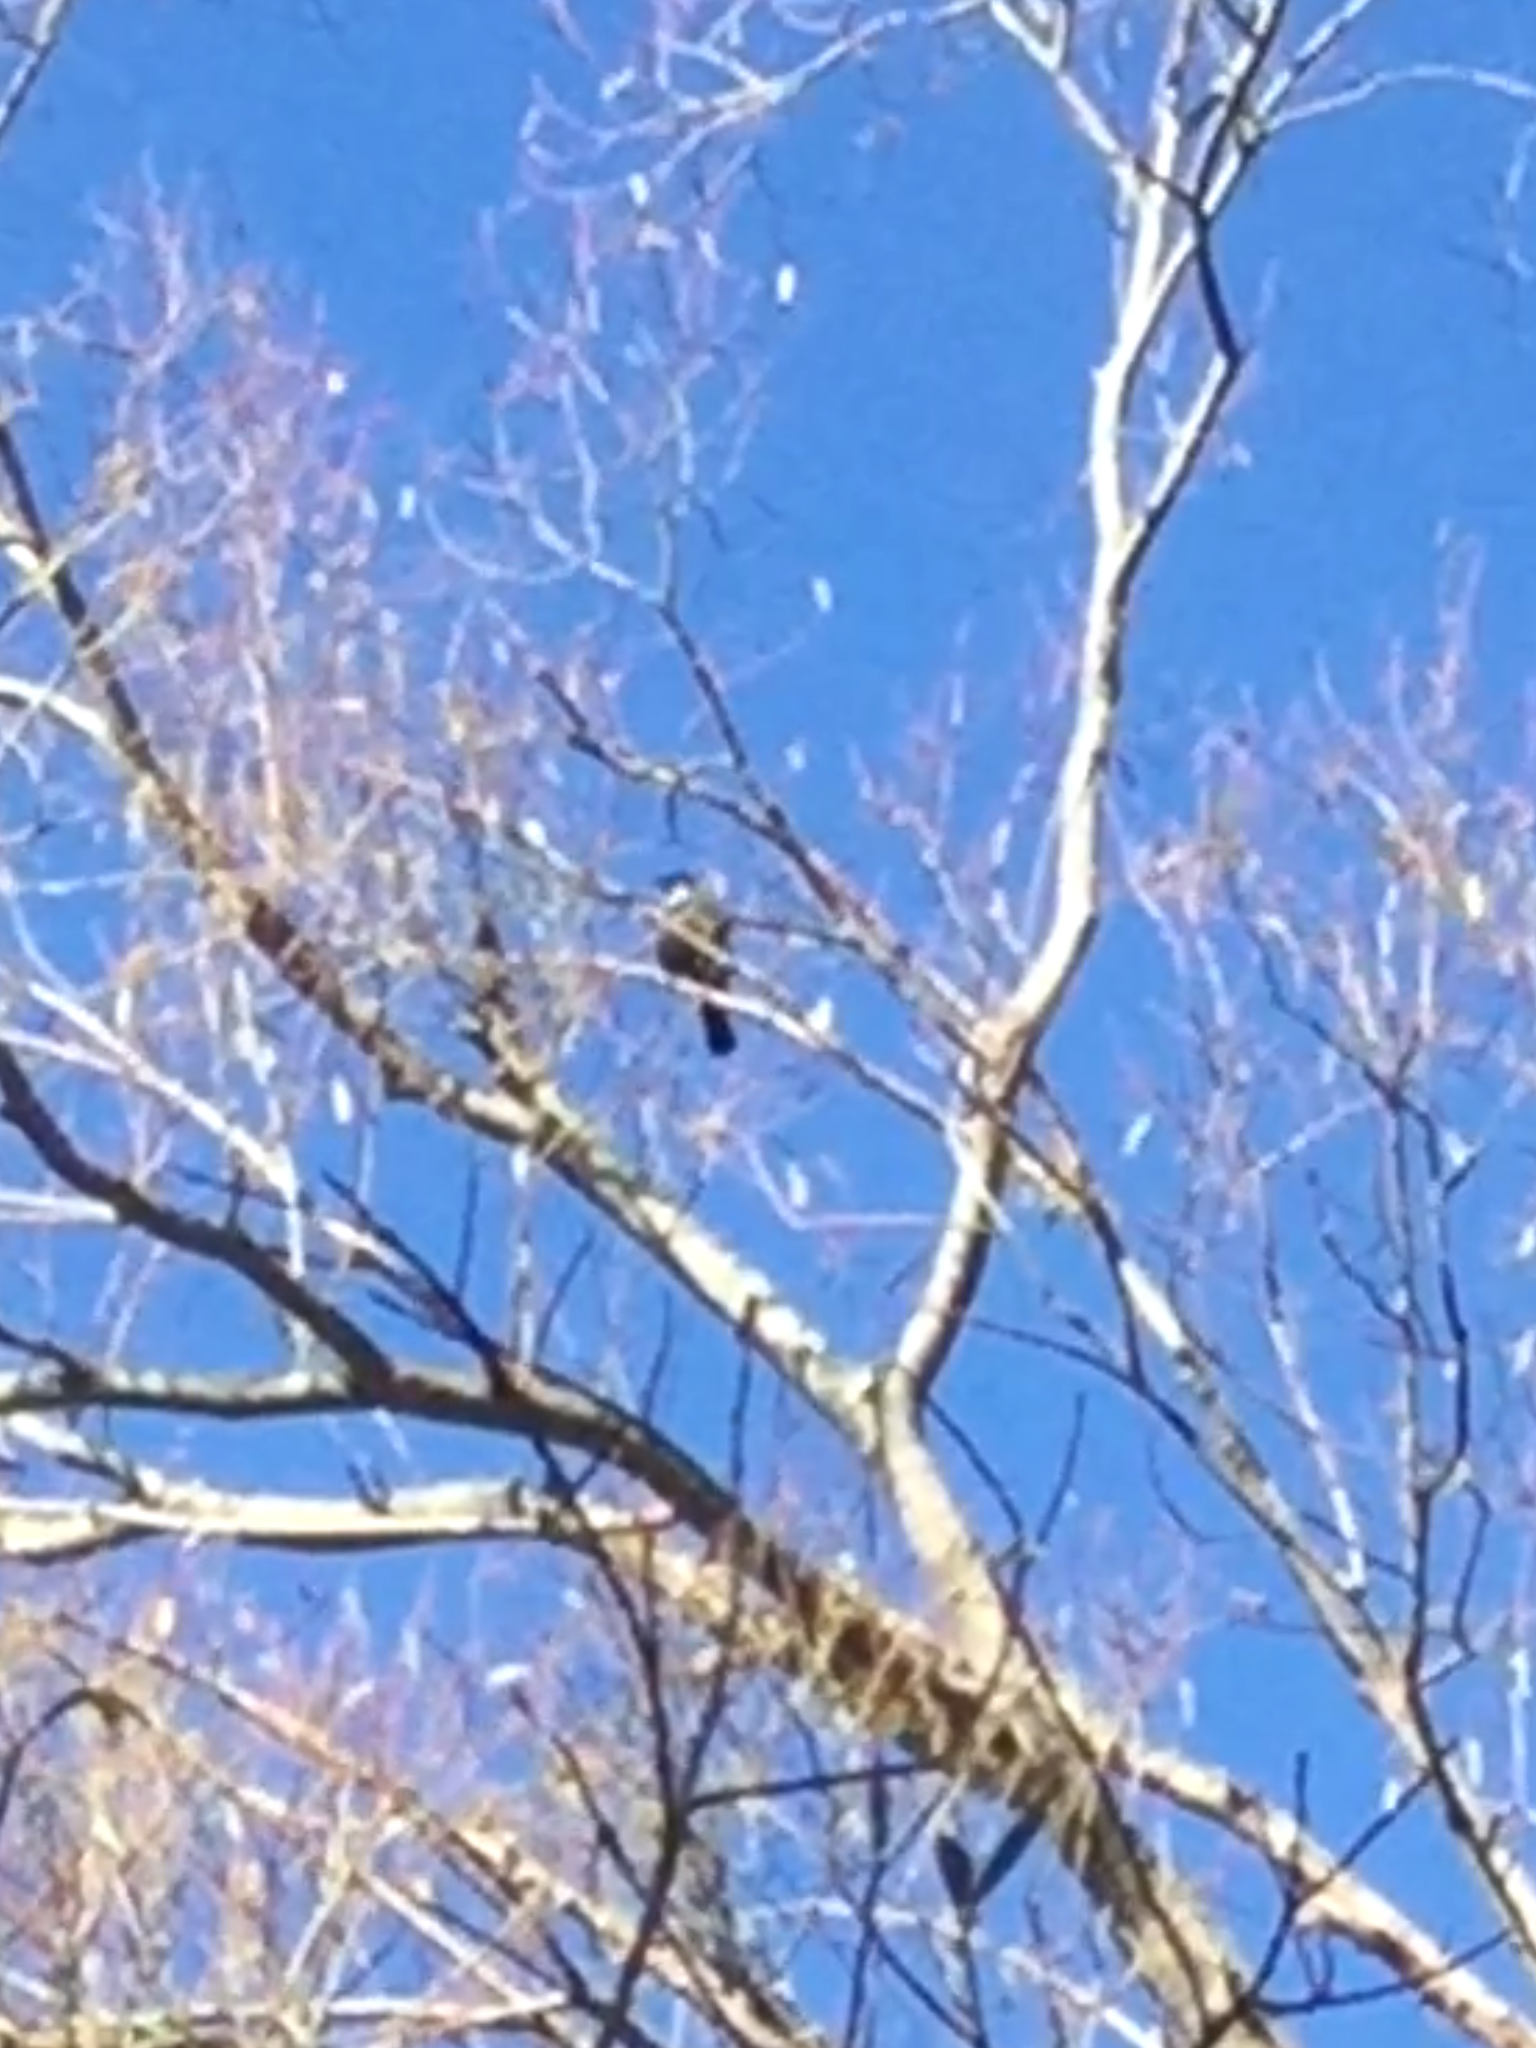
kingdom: Animalia
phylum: Chordata
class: Aves
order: Passeriformes
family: Meliphagidae
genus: Prosthemadera
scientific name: Prosthemadera novaeseelandiae
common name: Tui
